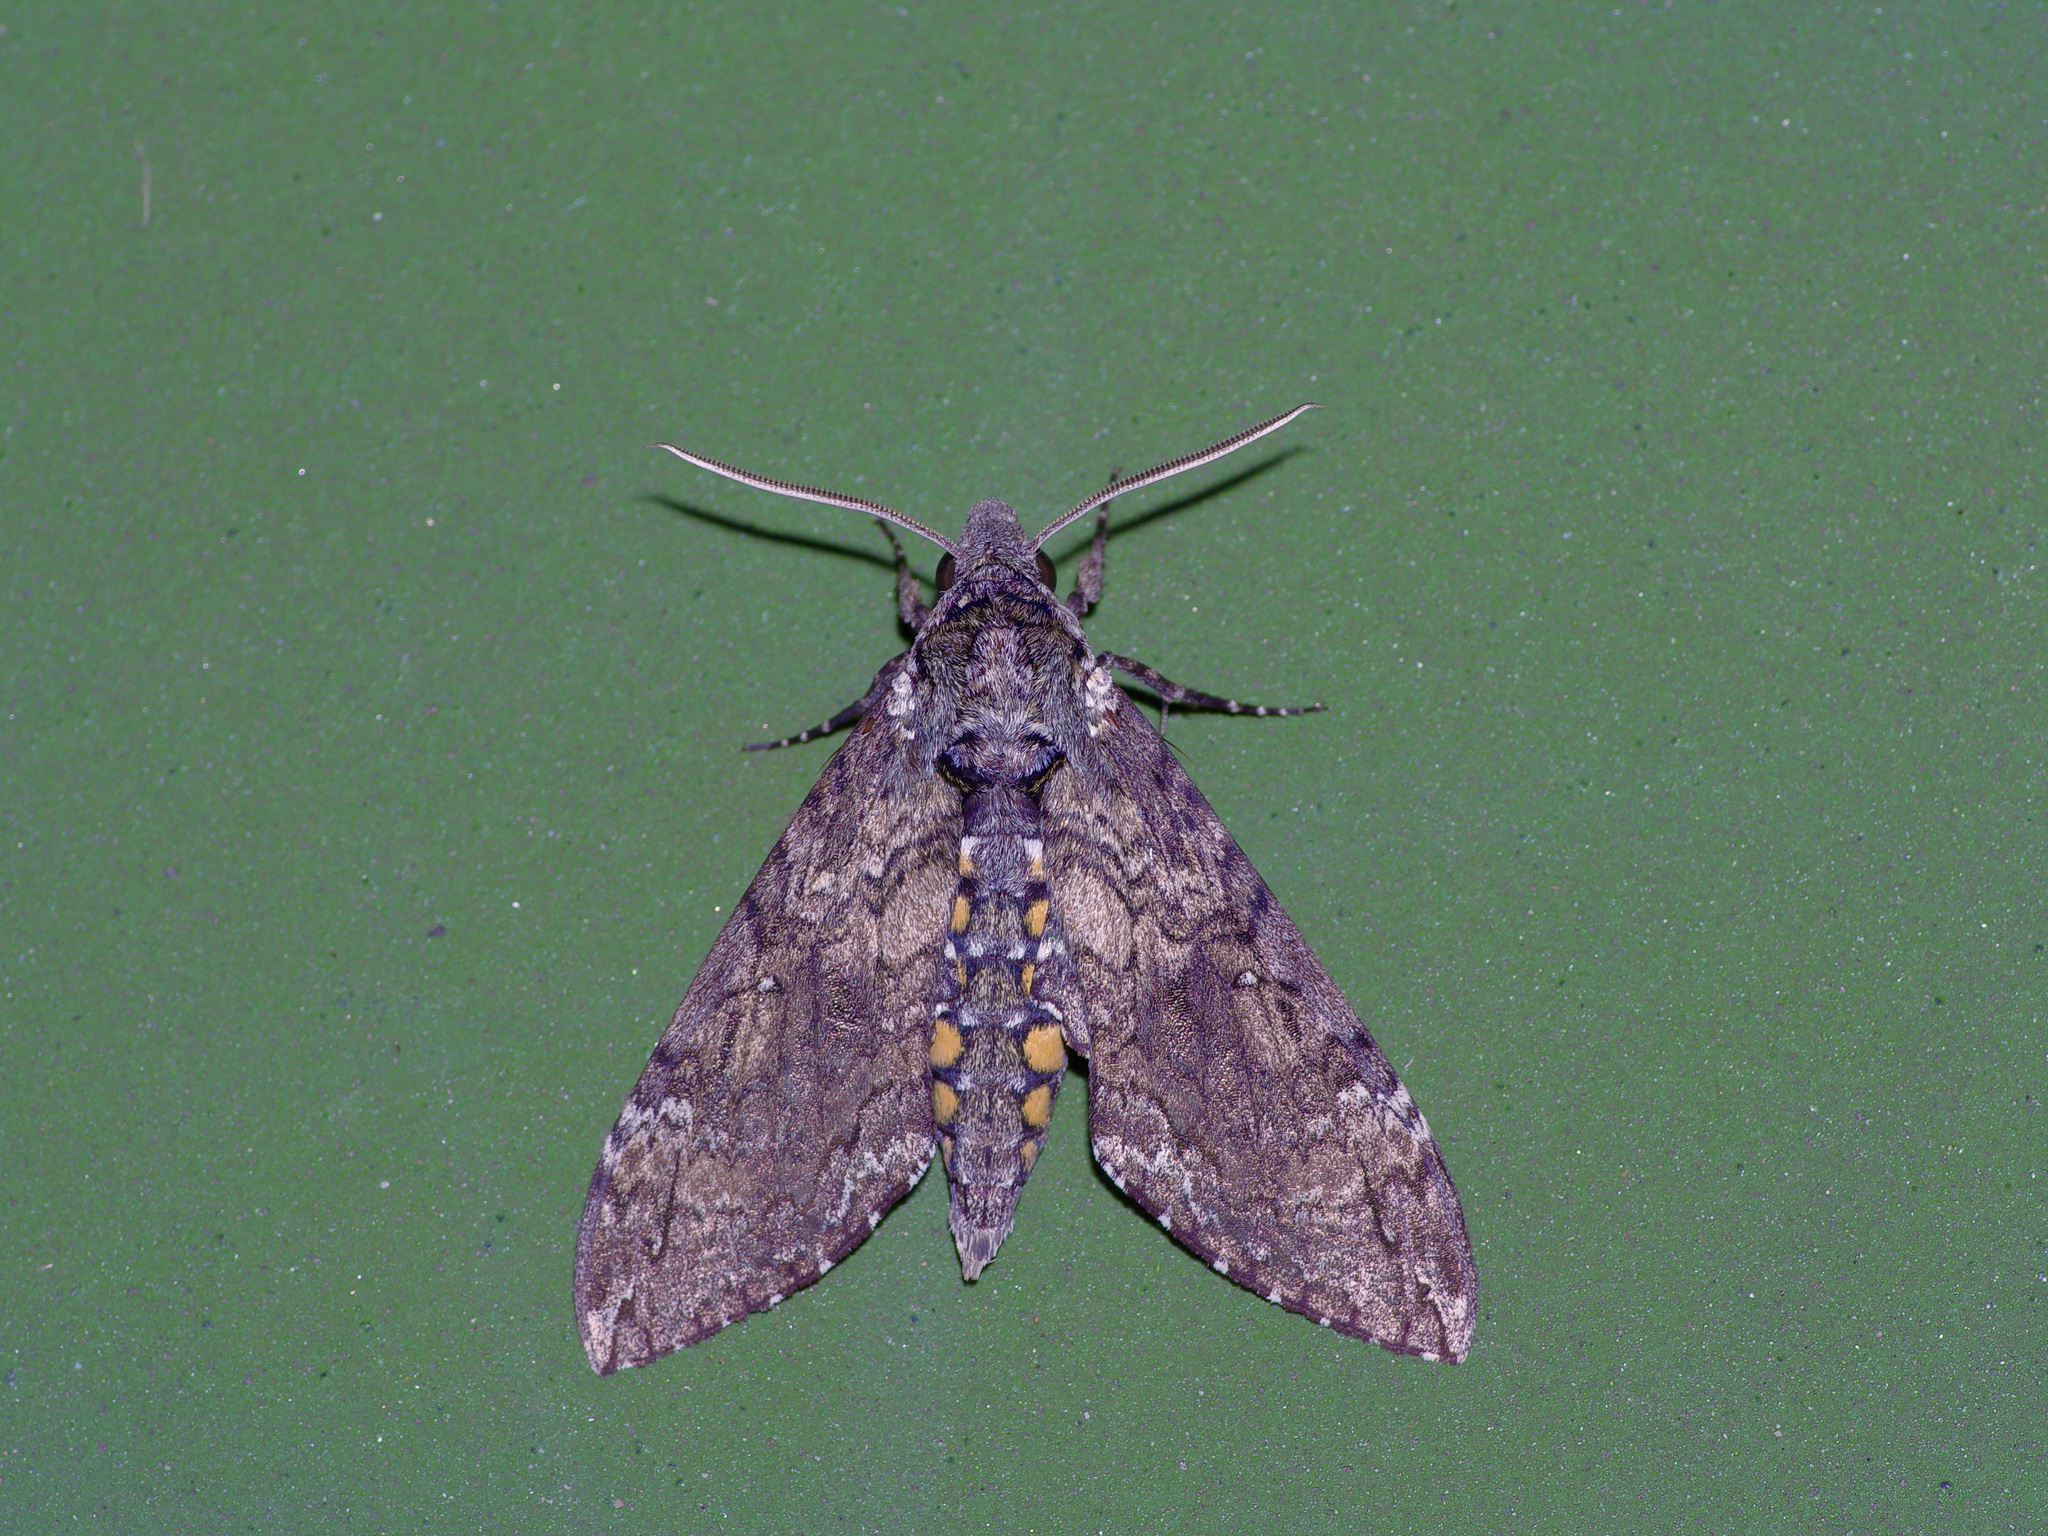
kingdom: Animalia
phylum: Arthropoda
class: Insecta
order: Lepidoptera
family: Sphingidae
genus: Manduca
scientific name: Manduca sexta
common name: Carolina sphinx
